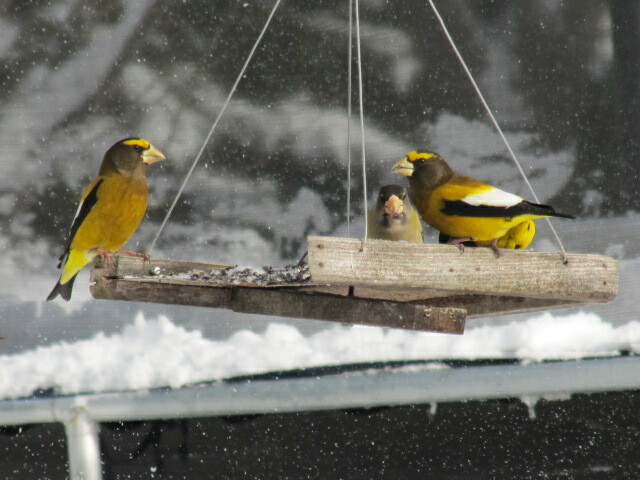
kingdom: Animalia
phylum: Chordata
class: Aves
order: Passeriformes
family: Fringillidae
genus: Hesperiphona
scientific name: Hesperiphona vespertina
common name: Evening grosbeak
